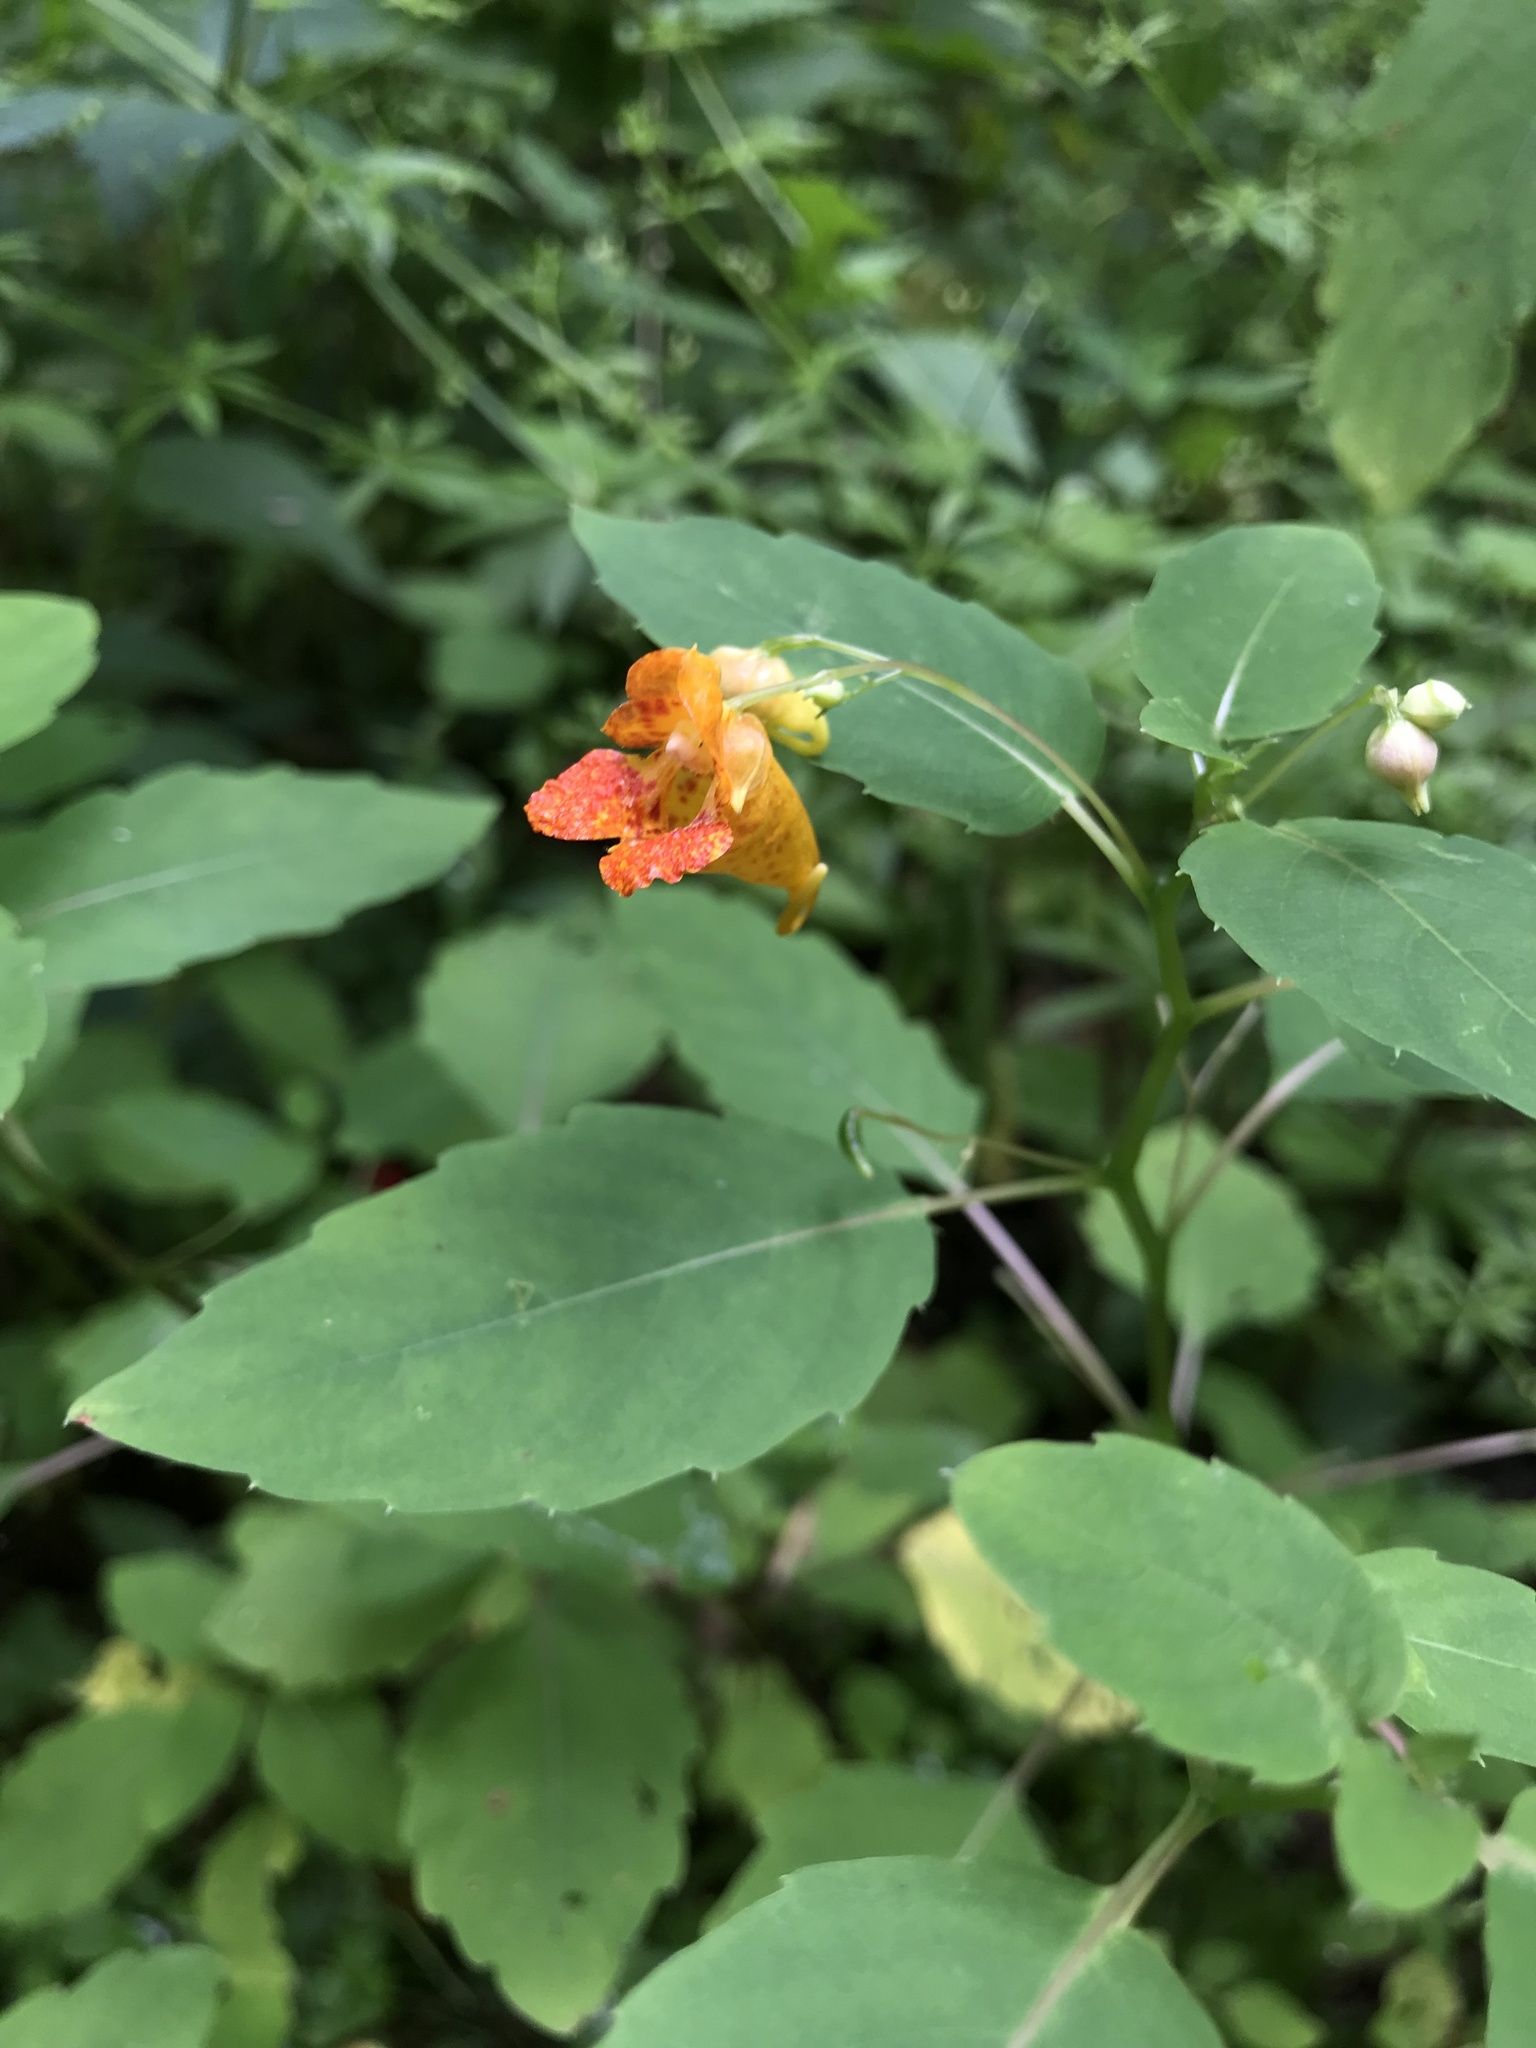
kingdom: Plantae
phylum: Tracheophyta
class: Magnoliopsida
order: Ericales
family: Balsaminaceae
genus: Impatiens
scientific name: Impatiens capensis
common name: Orange balsam
